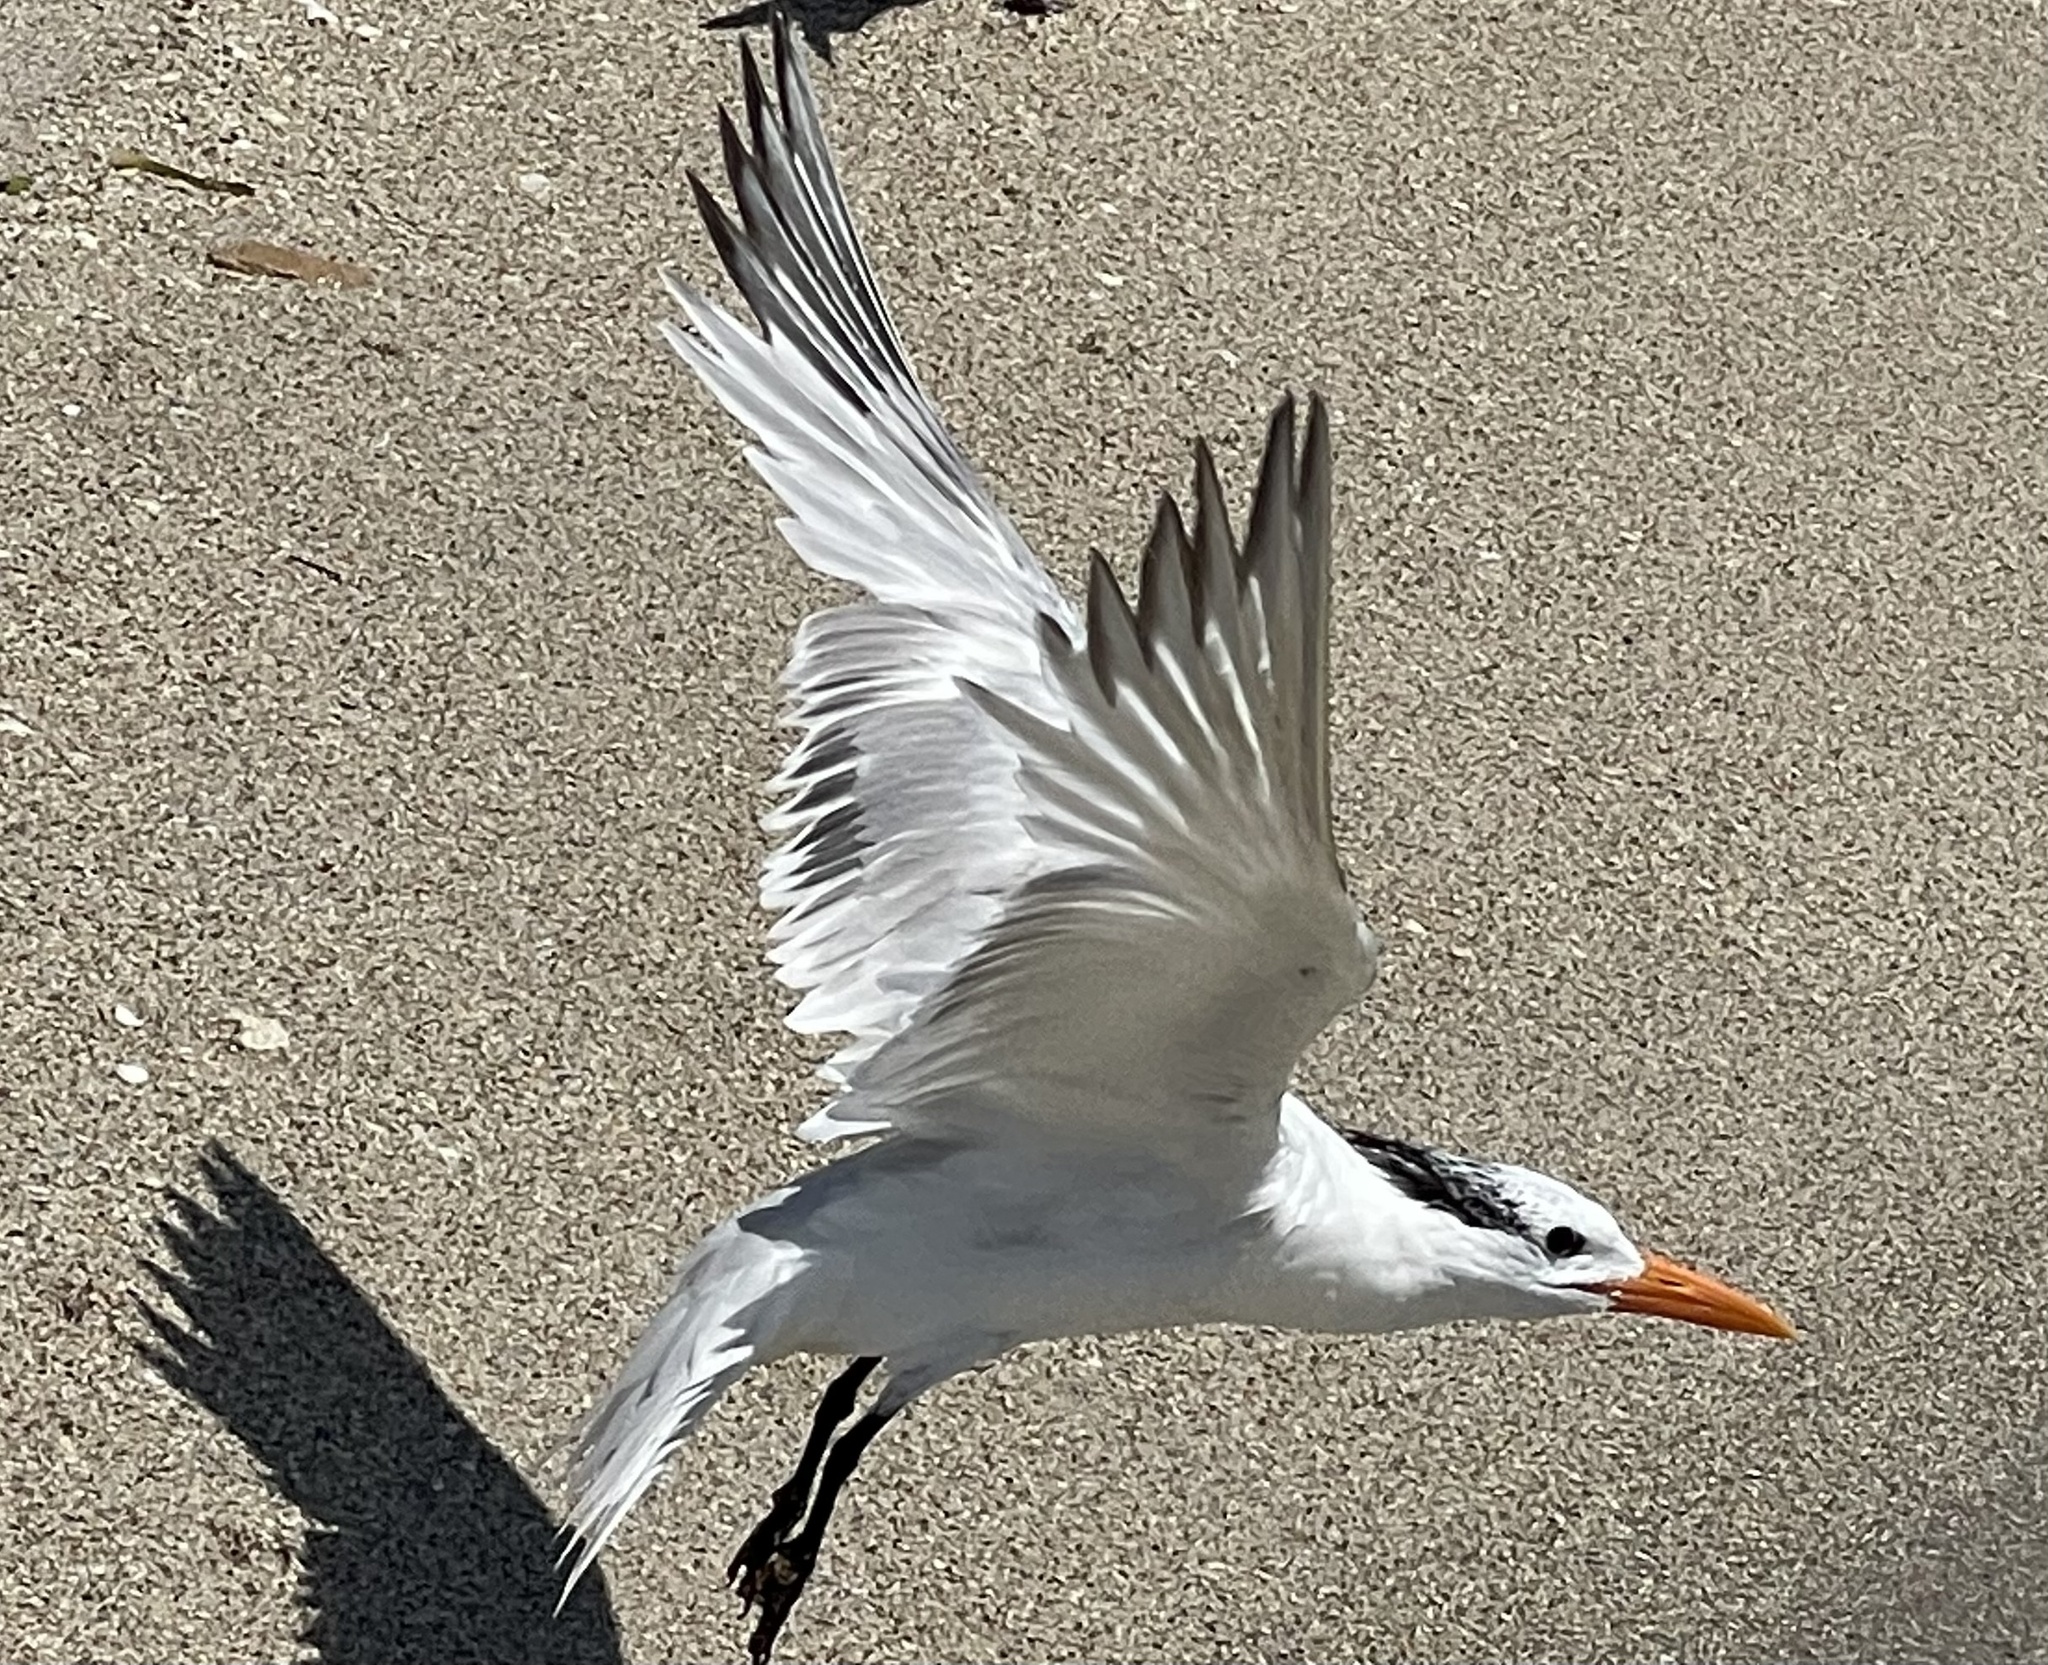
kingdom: Animalia
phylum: Chordata
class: Aves
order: Charadriiformes
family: Laridae
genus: Thalasseus
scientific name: Thalasseus maximus
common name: Royal tern
